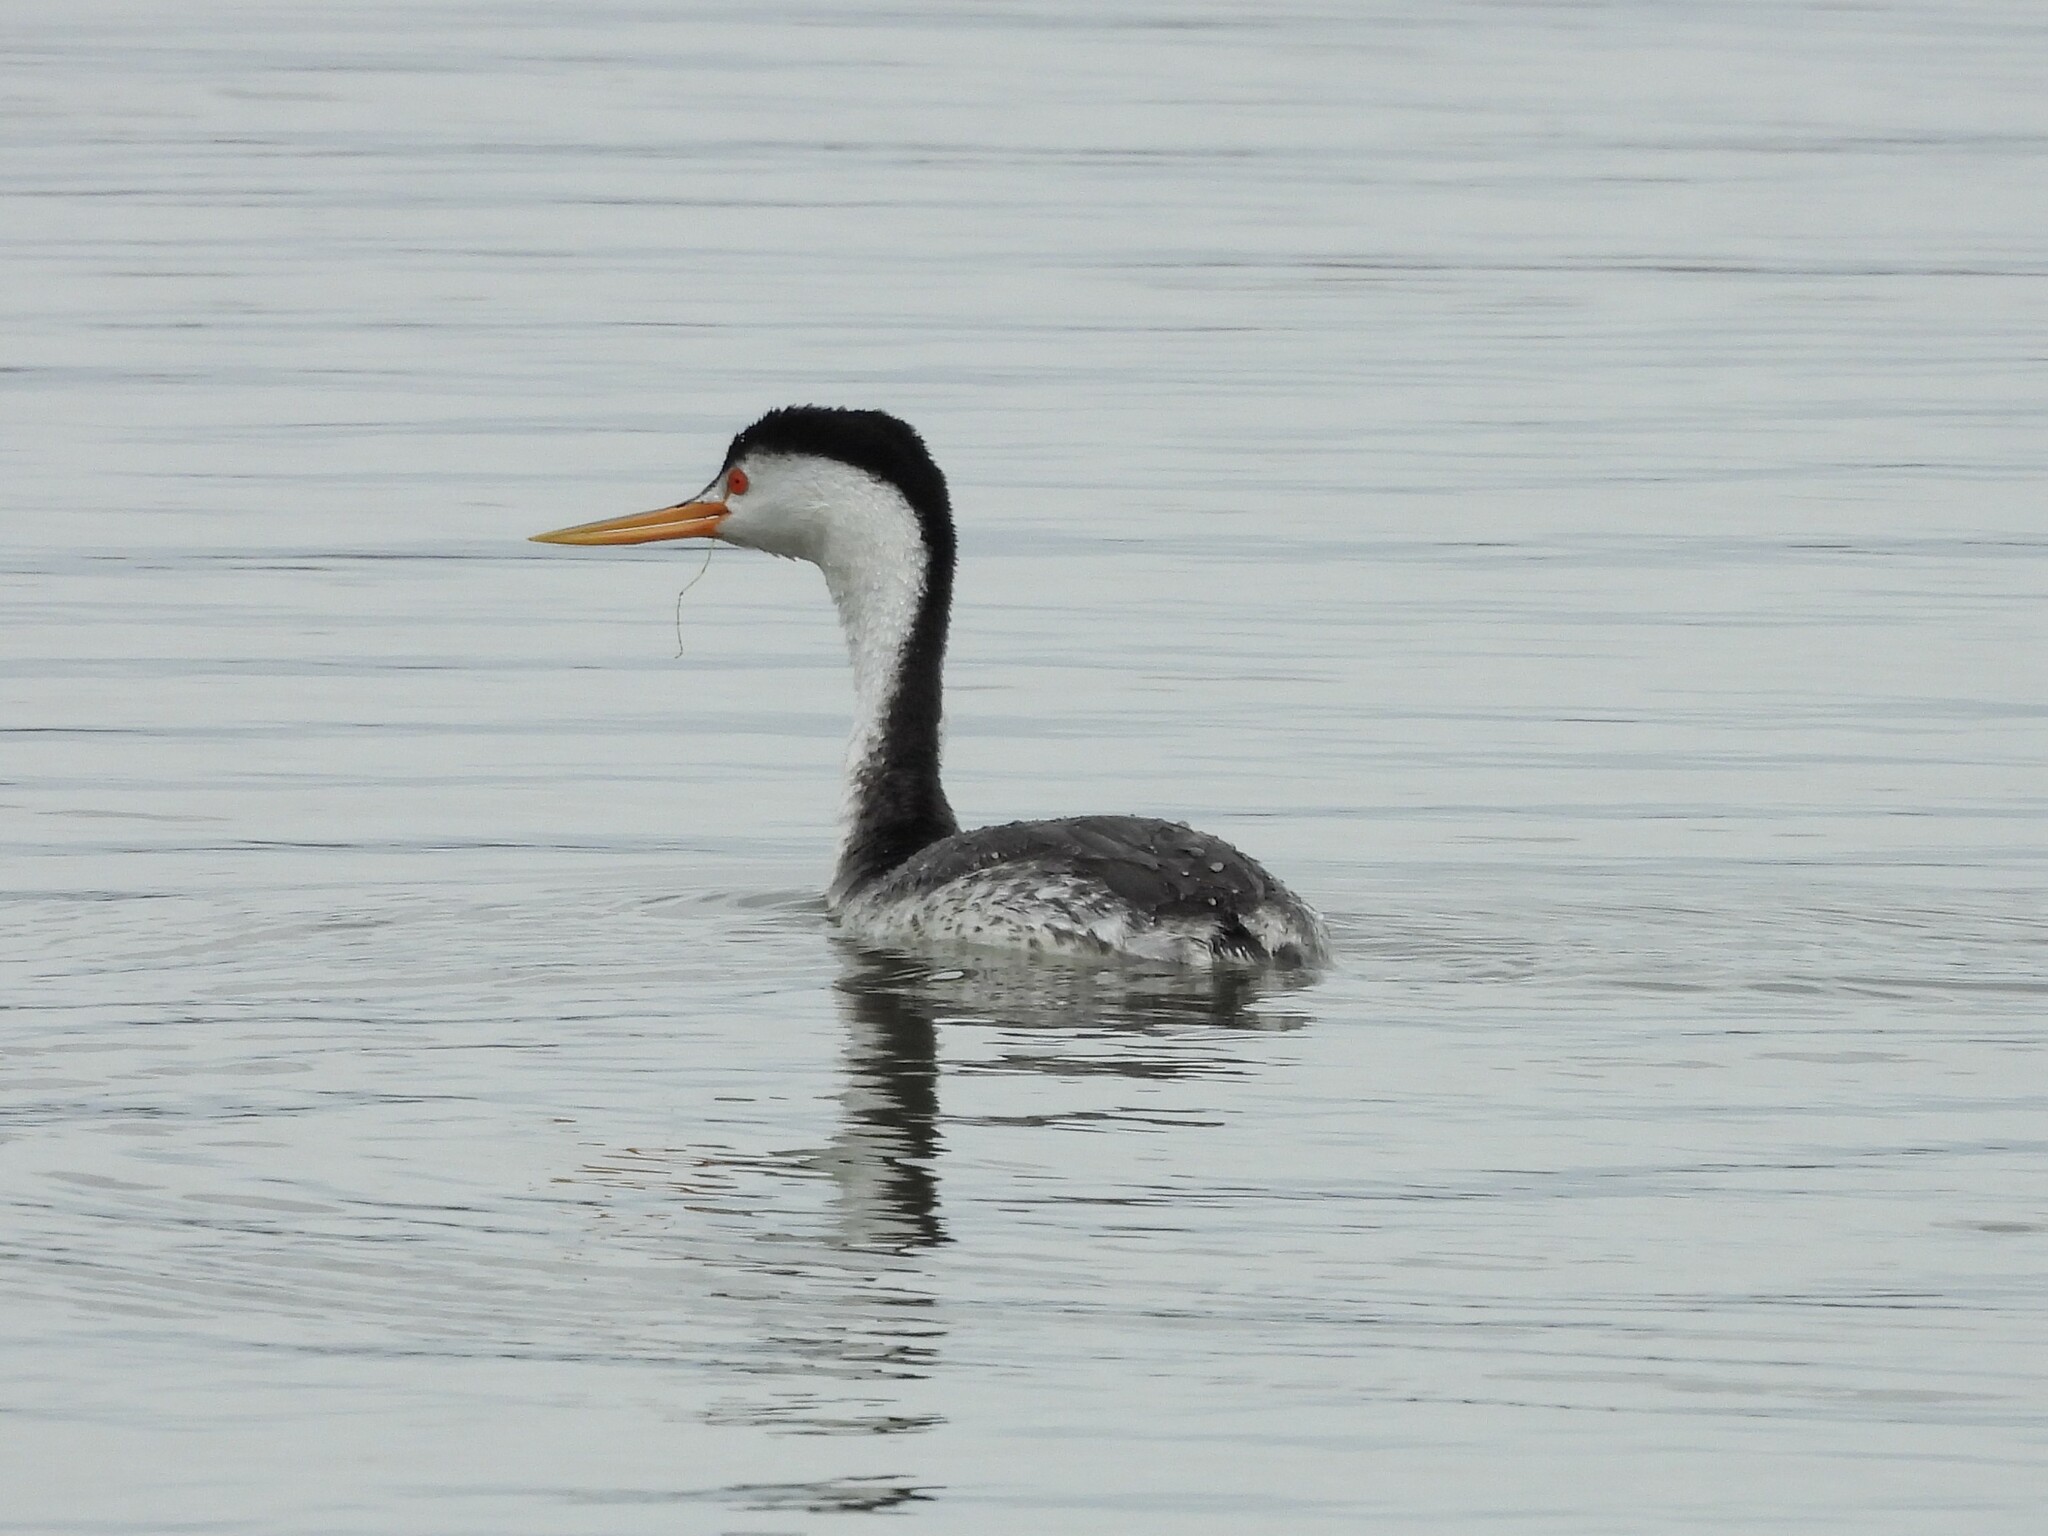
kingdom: Animalia
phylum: Chordata
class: Aves
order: Podicipediformes
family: Podicipedidae
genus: Aechmophorus
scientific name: Aechmophorus clarkii
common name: Clark's grebe
